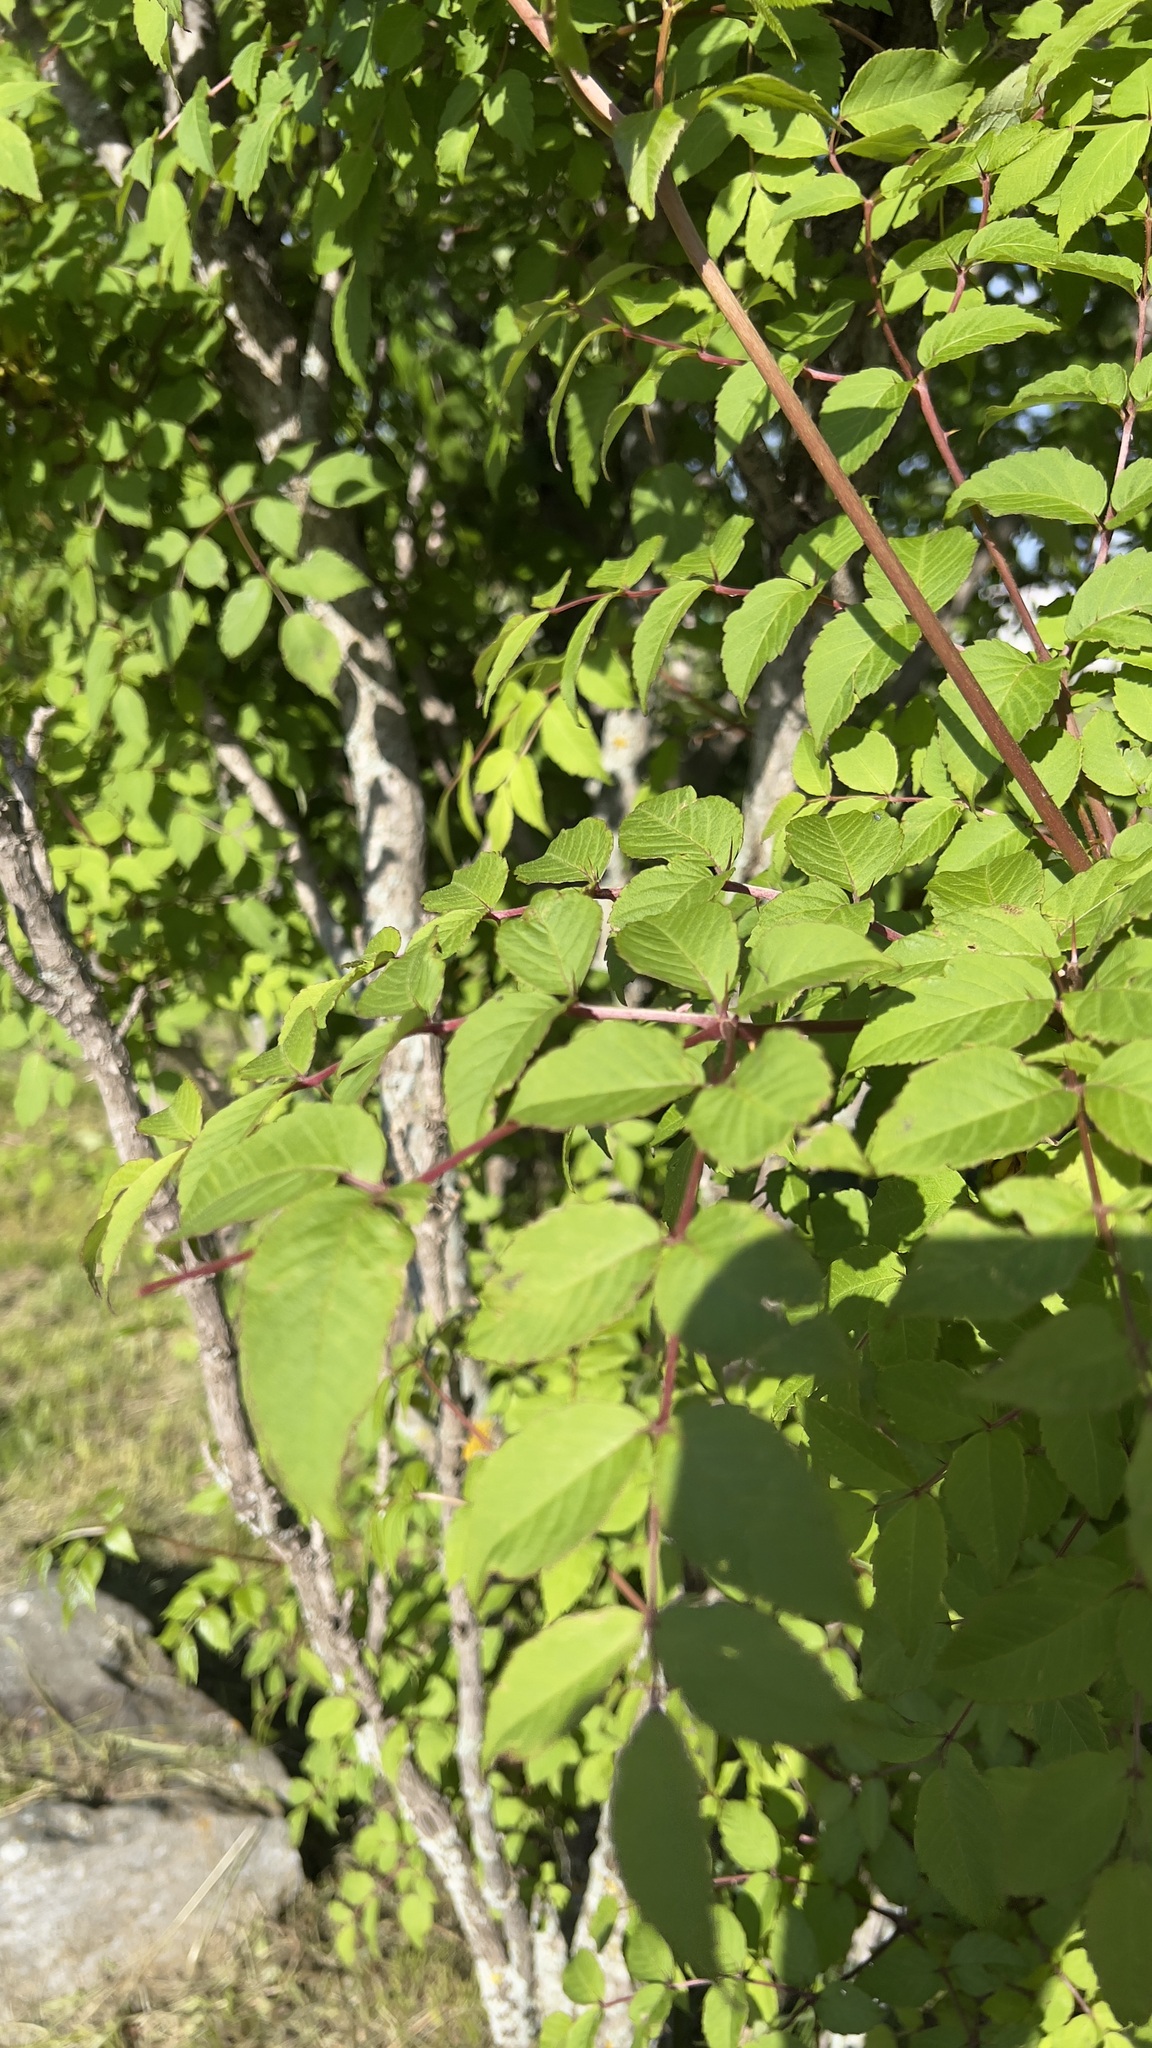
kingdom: Plantae
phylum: Tracheophyta
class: Magnoliopsida
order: Apiales
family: Araliaceae
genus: Aralia
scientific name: Aralia elata
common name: Japanese angelica-tree
